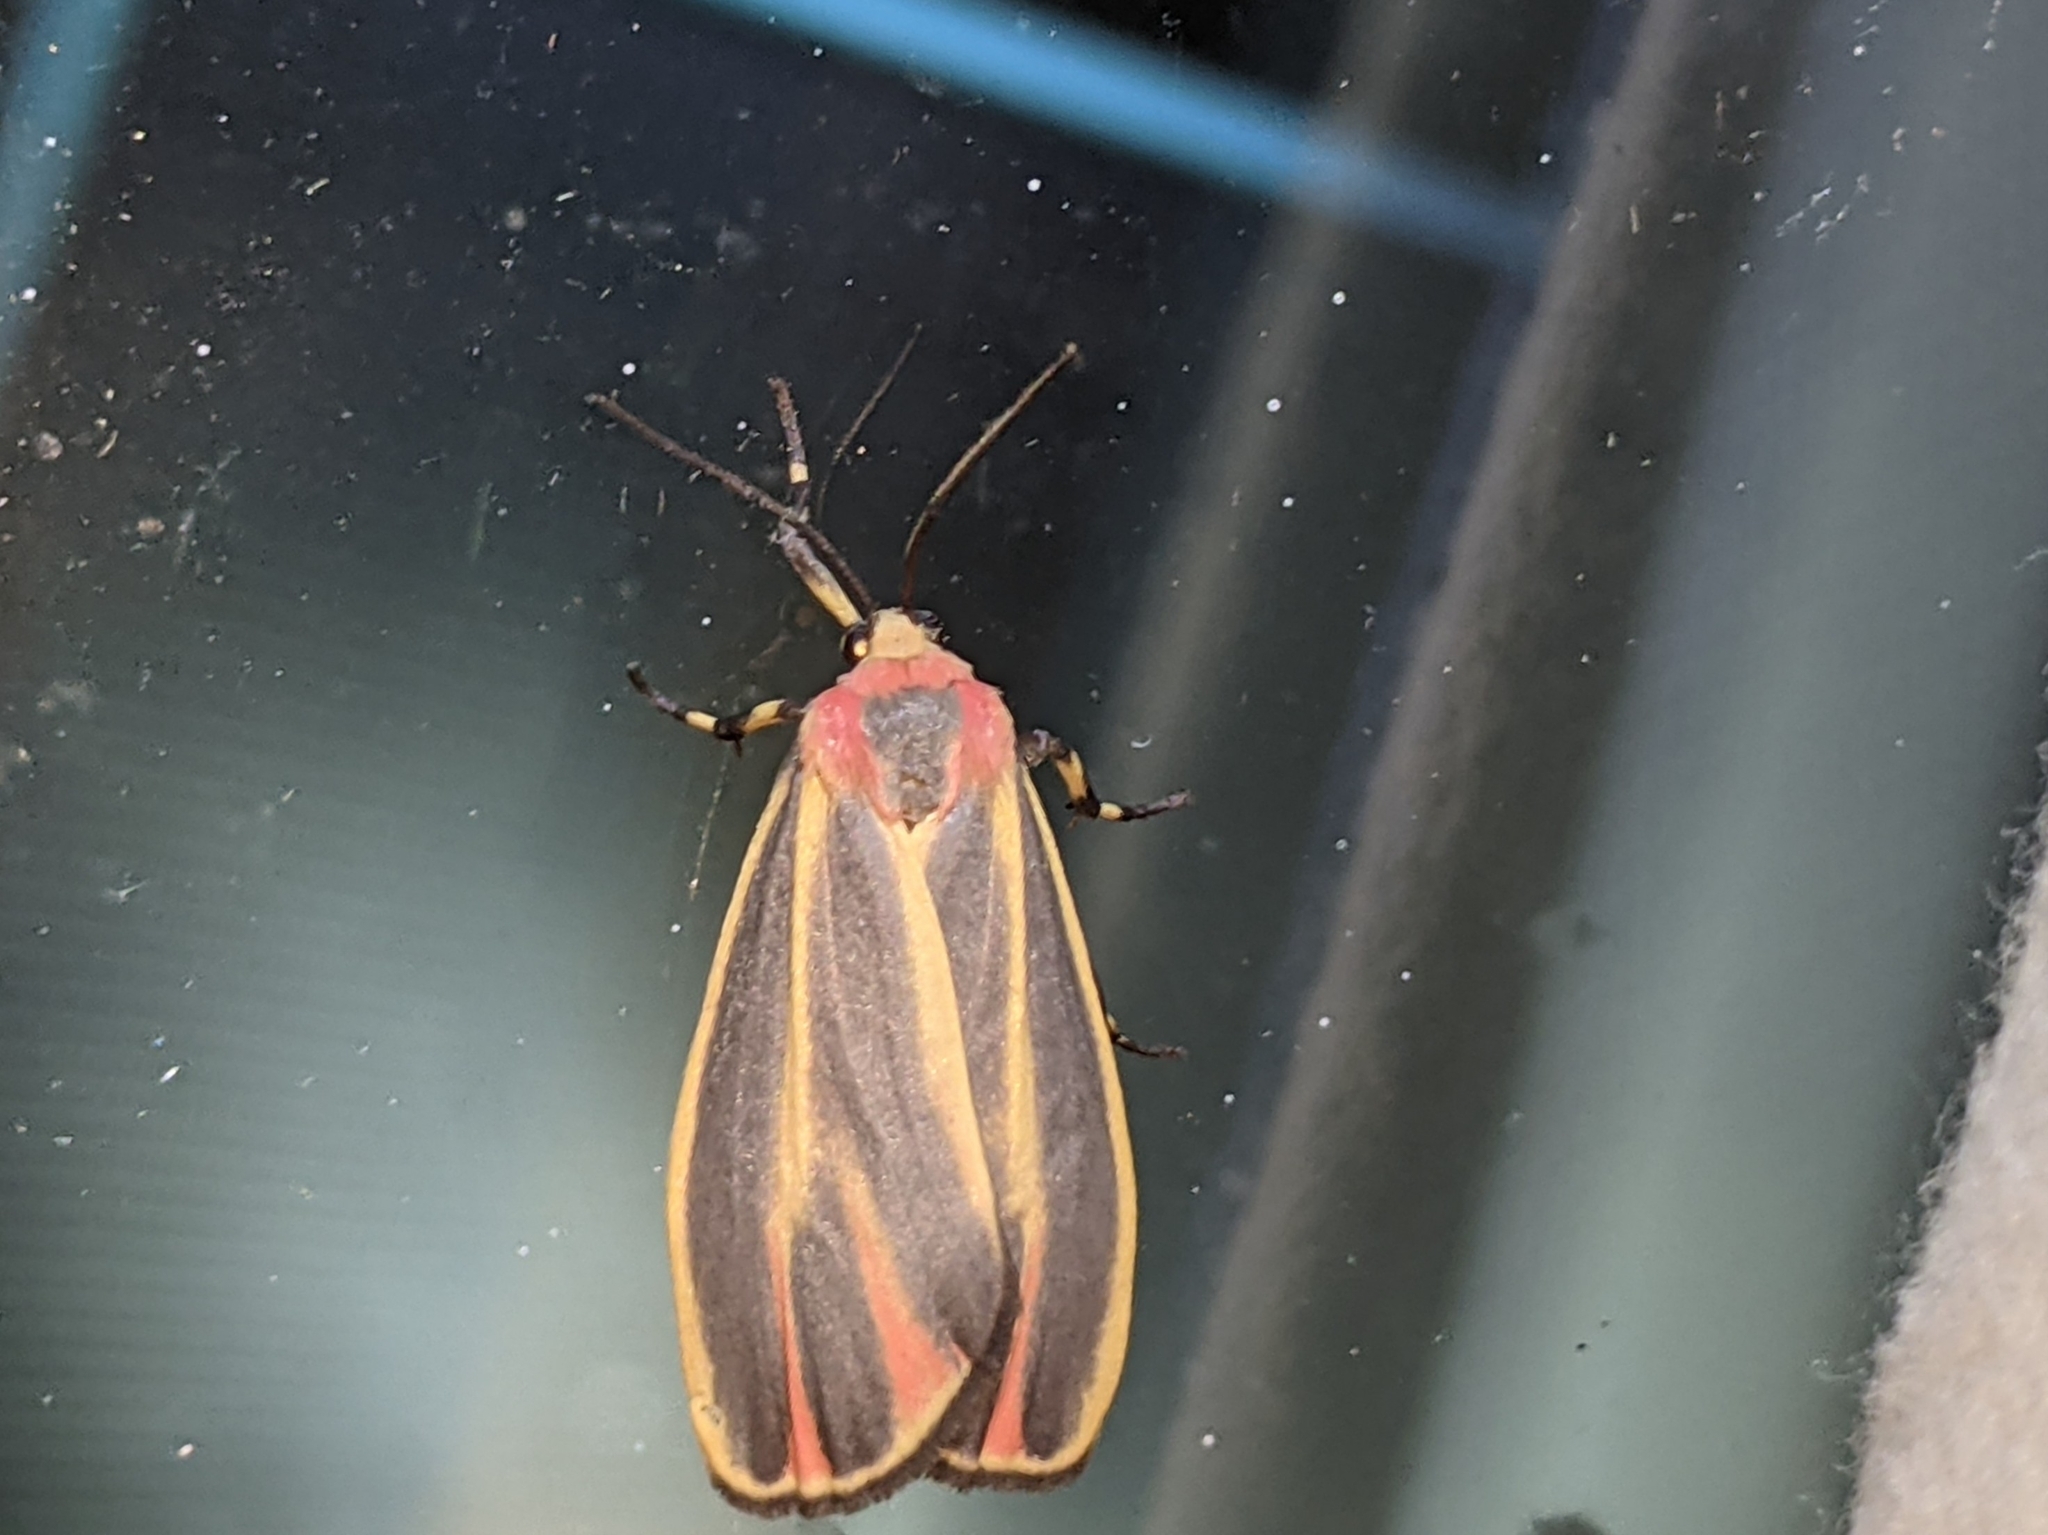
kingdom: Animalia
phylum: Arthropoda
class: Insecta
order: Lepidoptera
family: Erebidae
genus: Hypoprepia
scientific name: Hypoprepia fucosa
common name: Painted lichen moth
